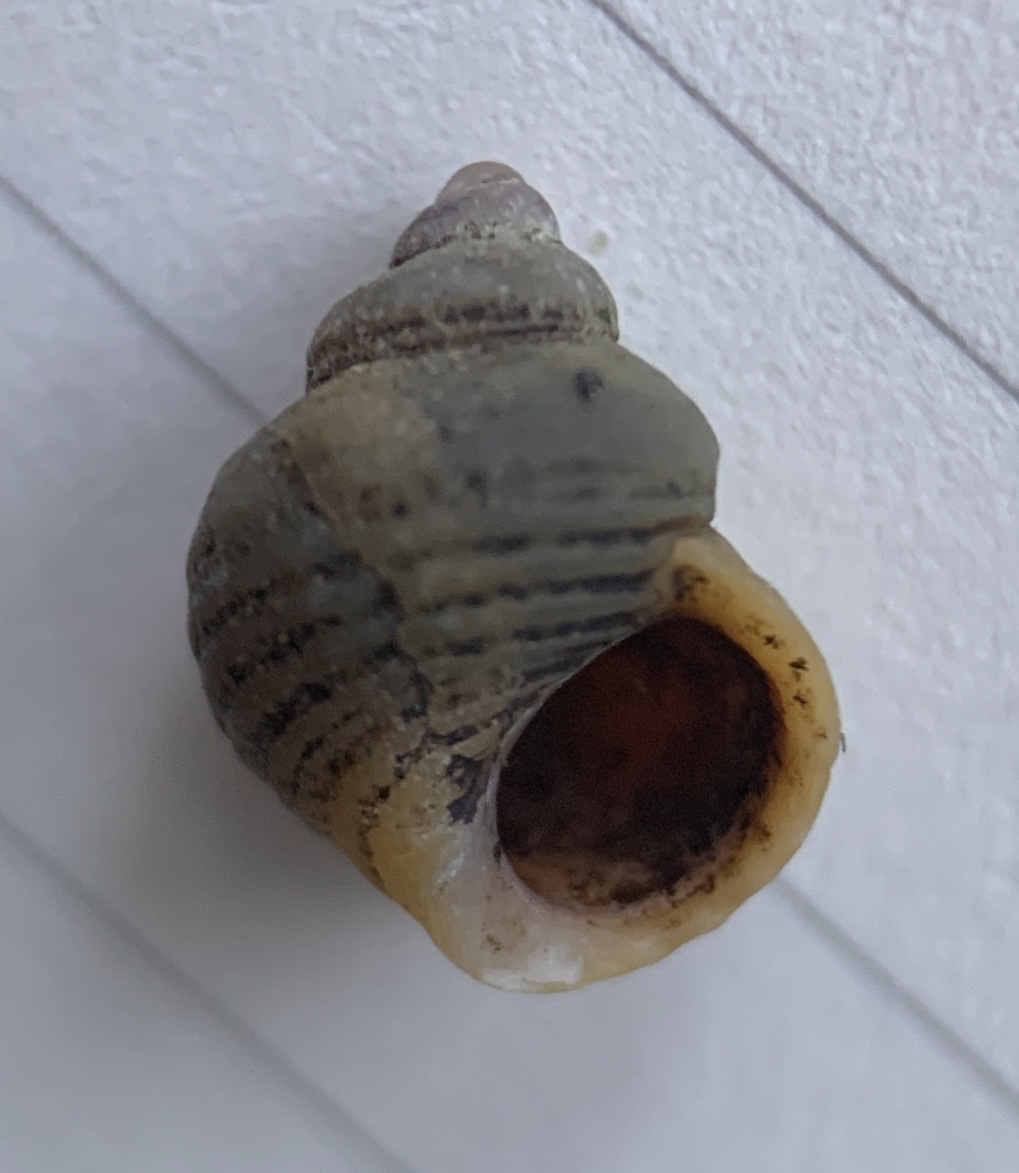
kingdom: Animalia
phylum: Mollusca
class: Gastropoda
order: Littorinimorpha
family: Littorinidae
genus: Littorina
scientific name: Littorina saxatilis
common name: Black-lined periwinkle
